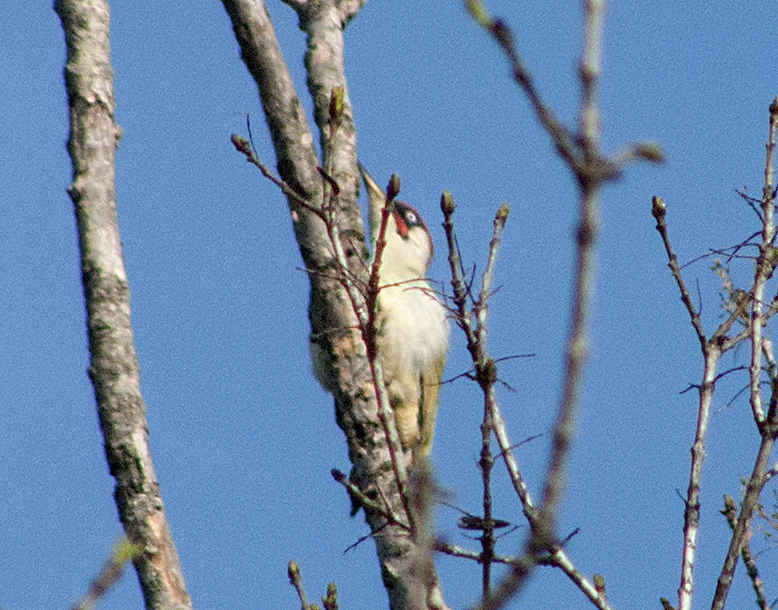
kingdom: Animalia
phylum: Chordata
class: Aves
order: Piciformes
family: Picidae
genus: Picus
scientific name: Picus viridis
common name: European green woodpecker
